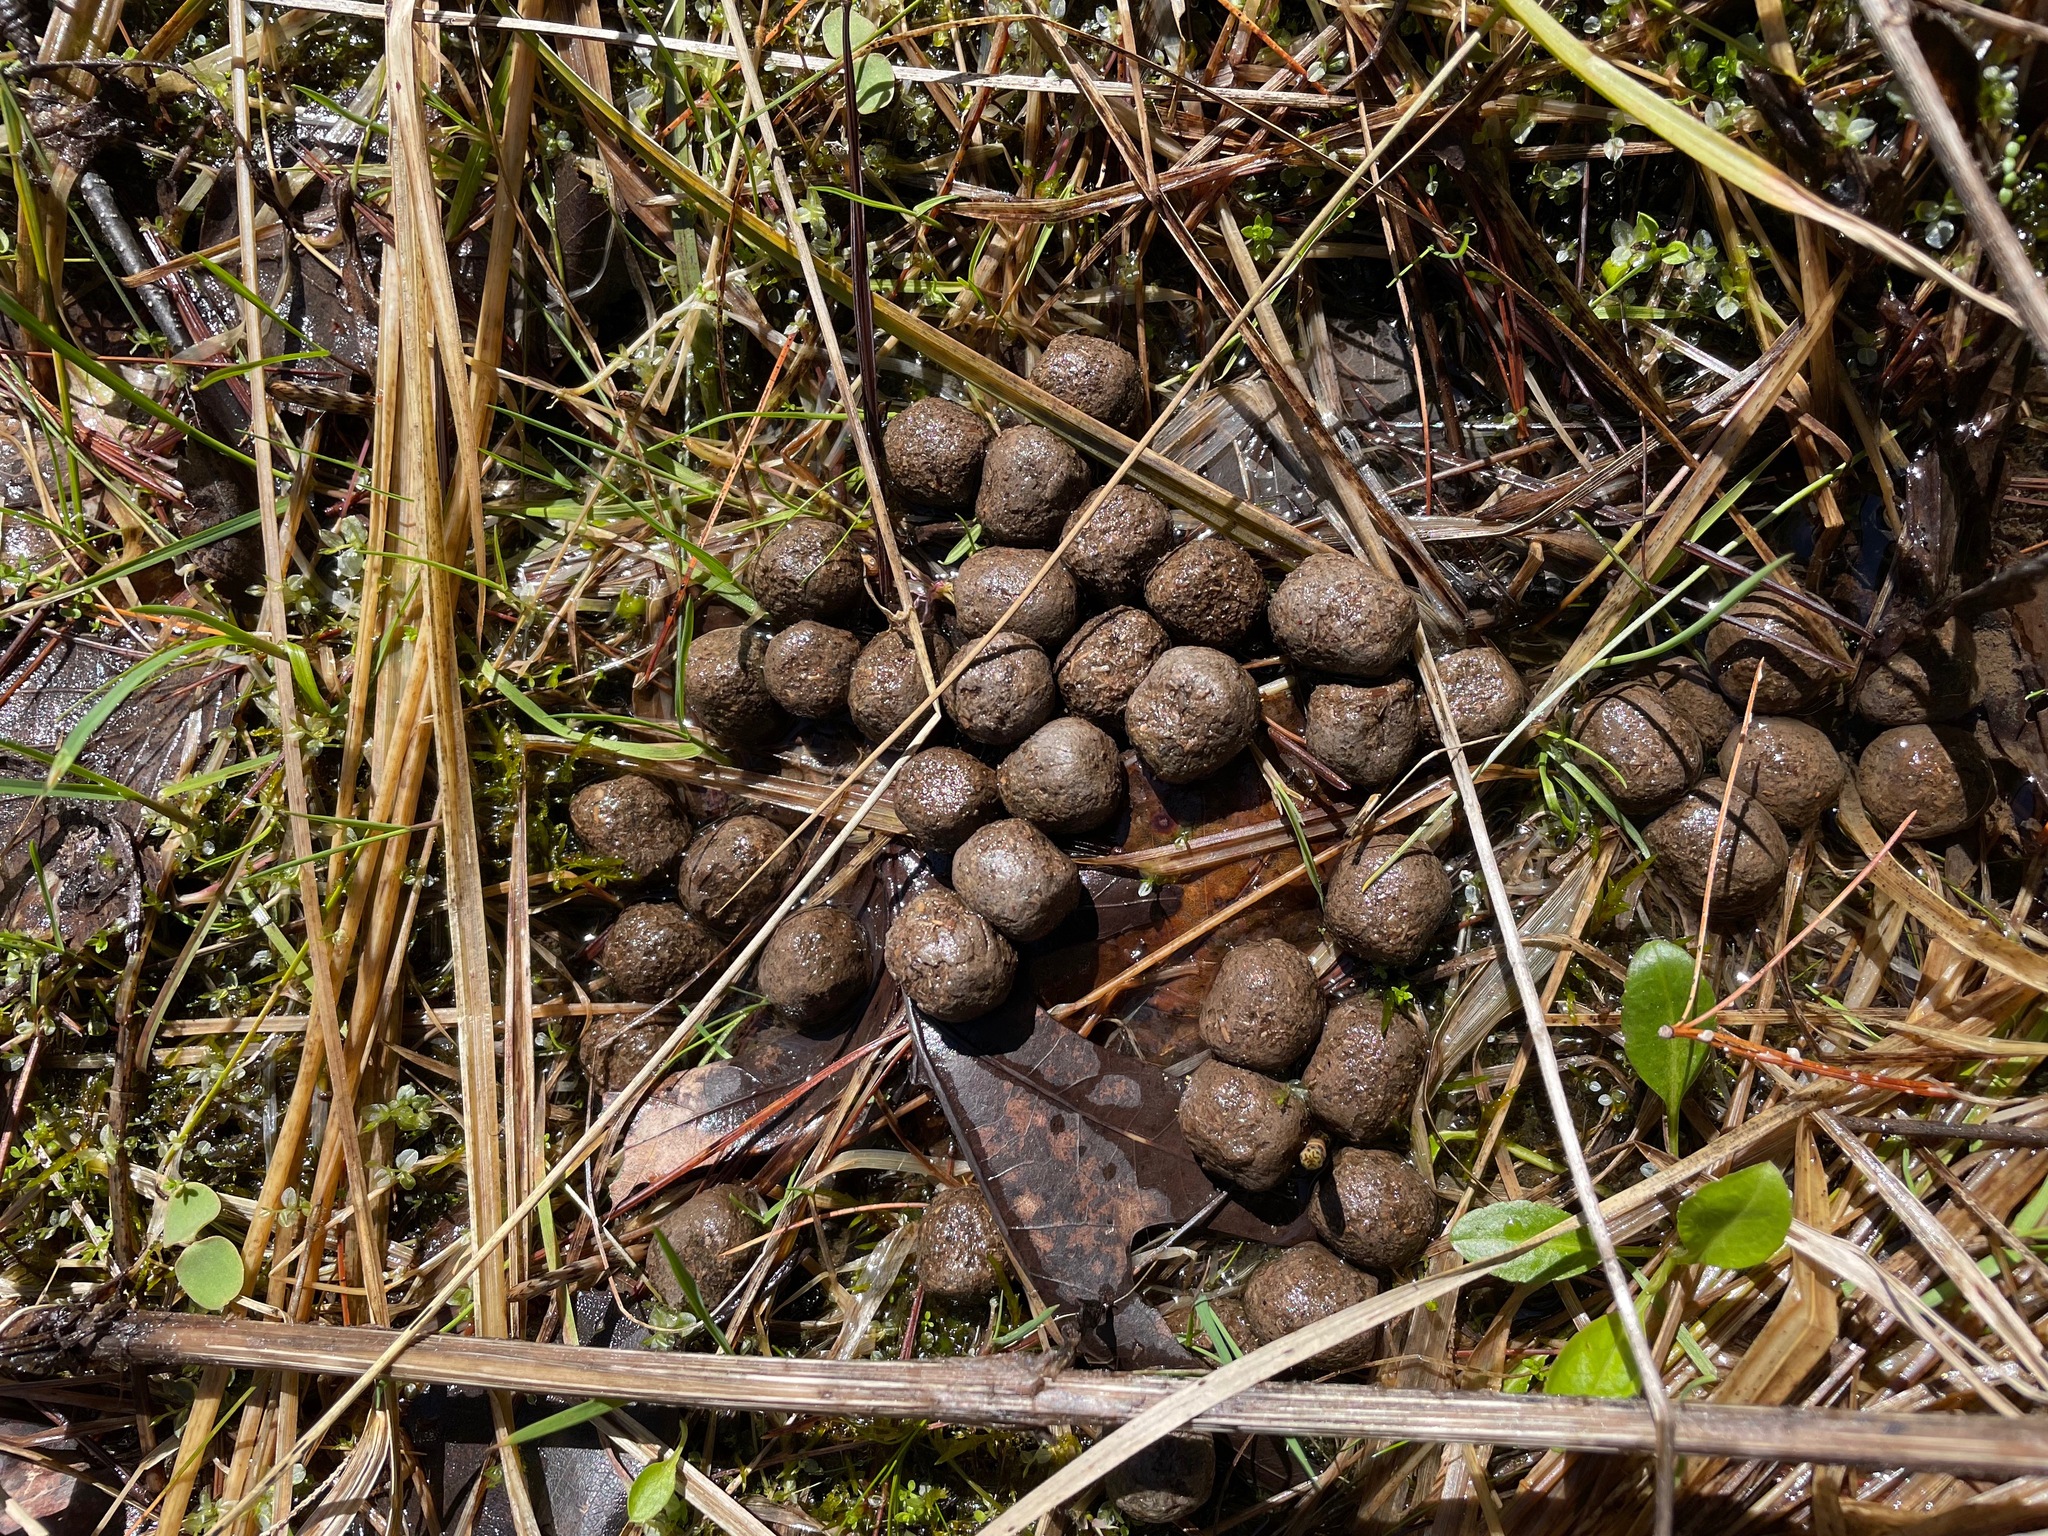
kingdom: Animalia
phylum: Chordata
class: Mammalia
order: Artiodactyla
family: Cervidae
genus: Odocoileus
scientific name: Odocoileus virginianus
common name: White-tailed deer
